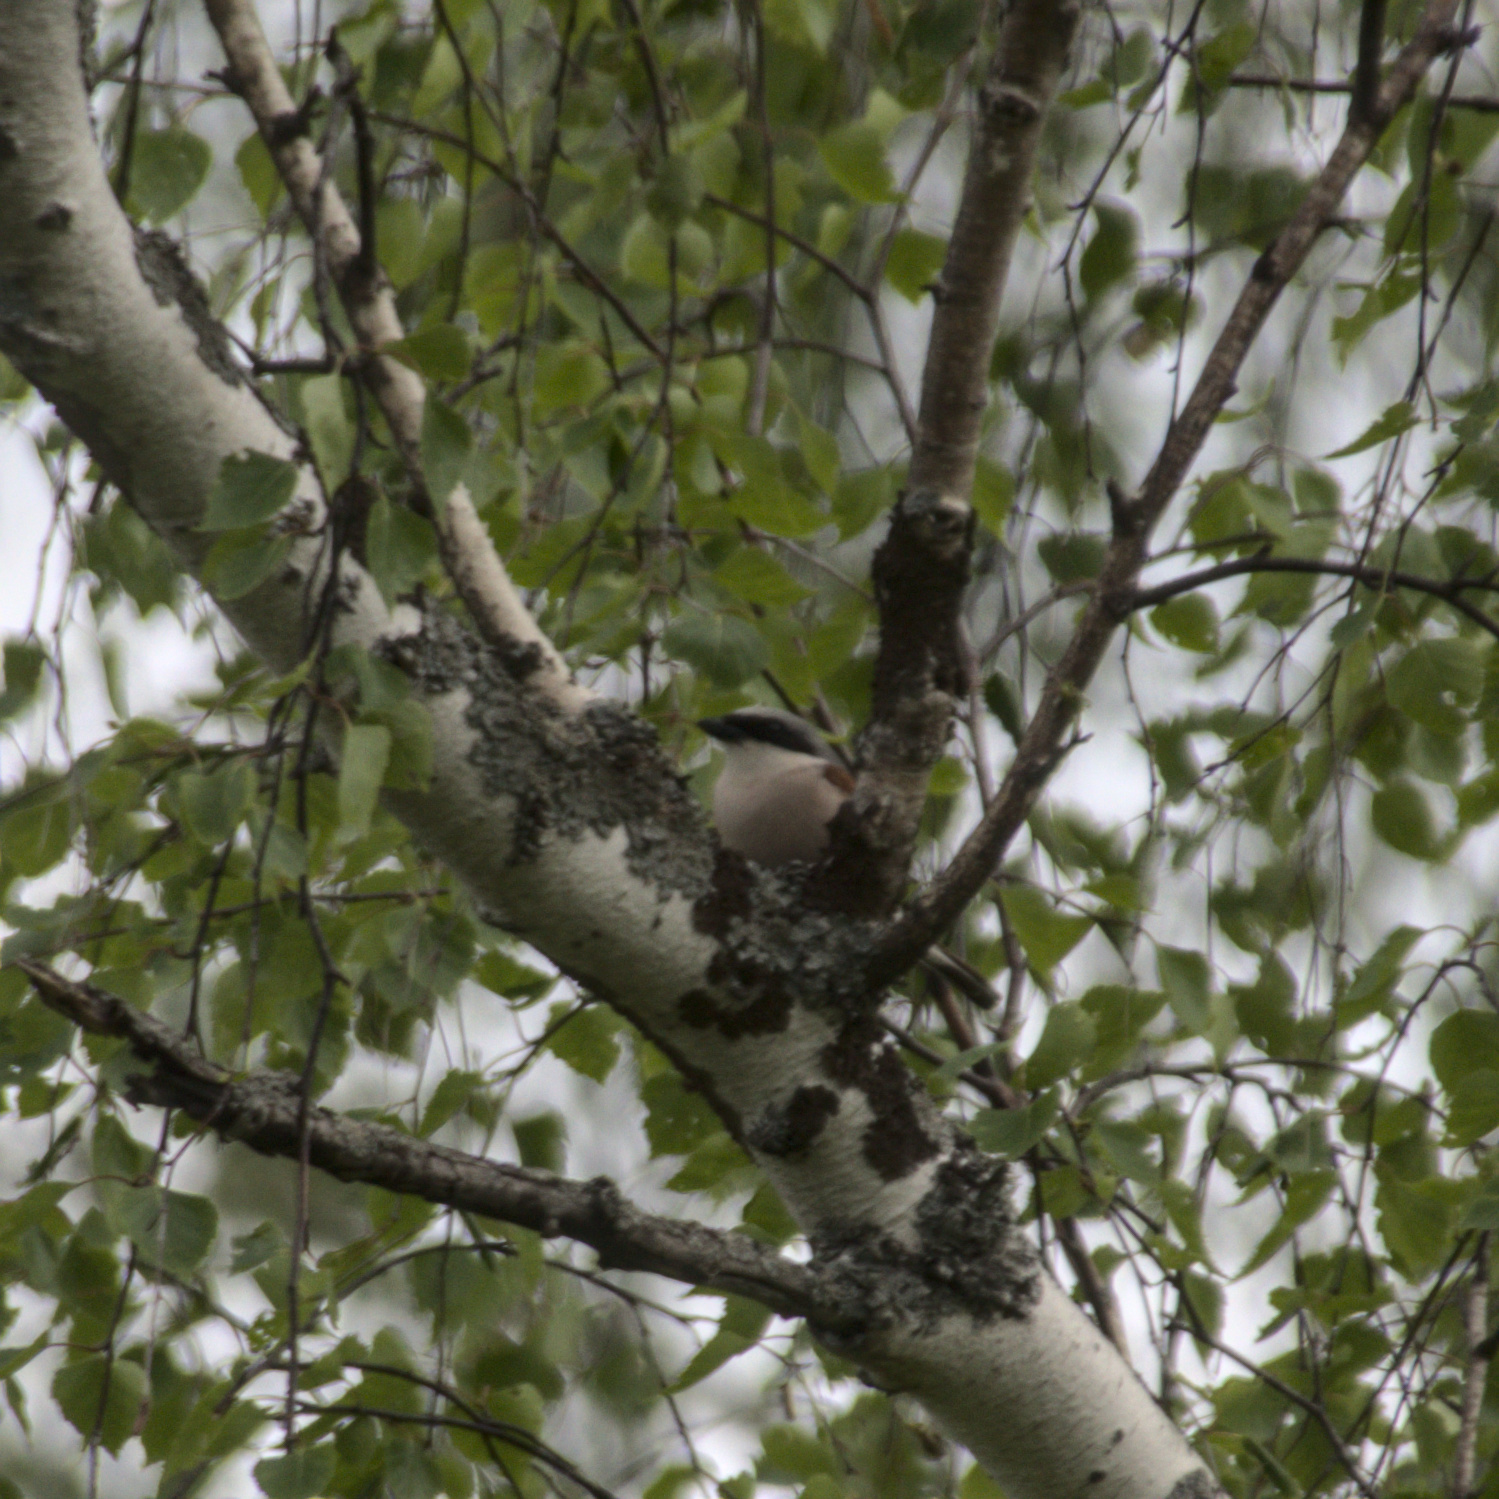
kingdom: Animalia
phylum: Chordata
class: Aves
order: Passeriformes
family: Laniidae
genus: Lanius
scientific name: Lanius collurio
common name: Red-backed shrike
